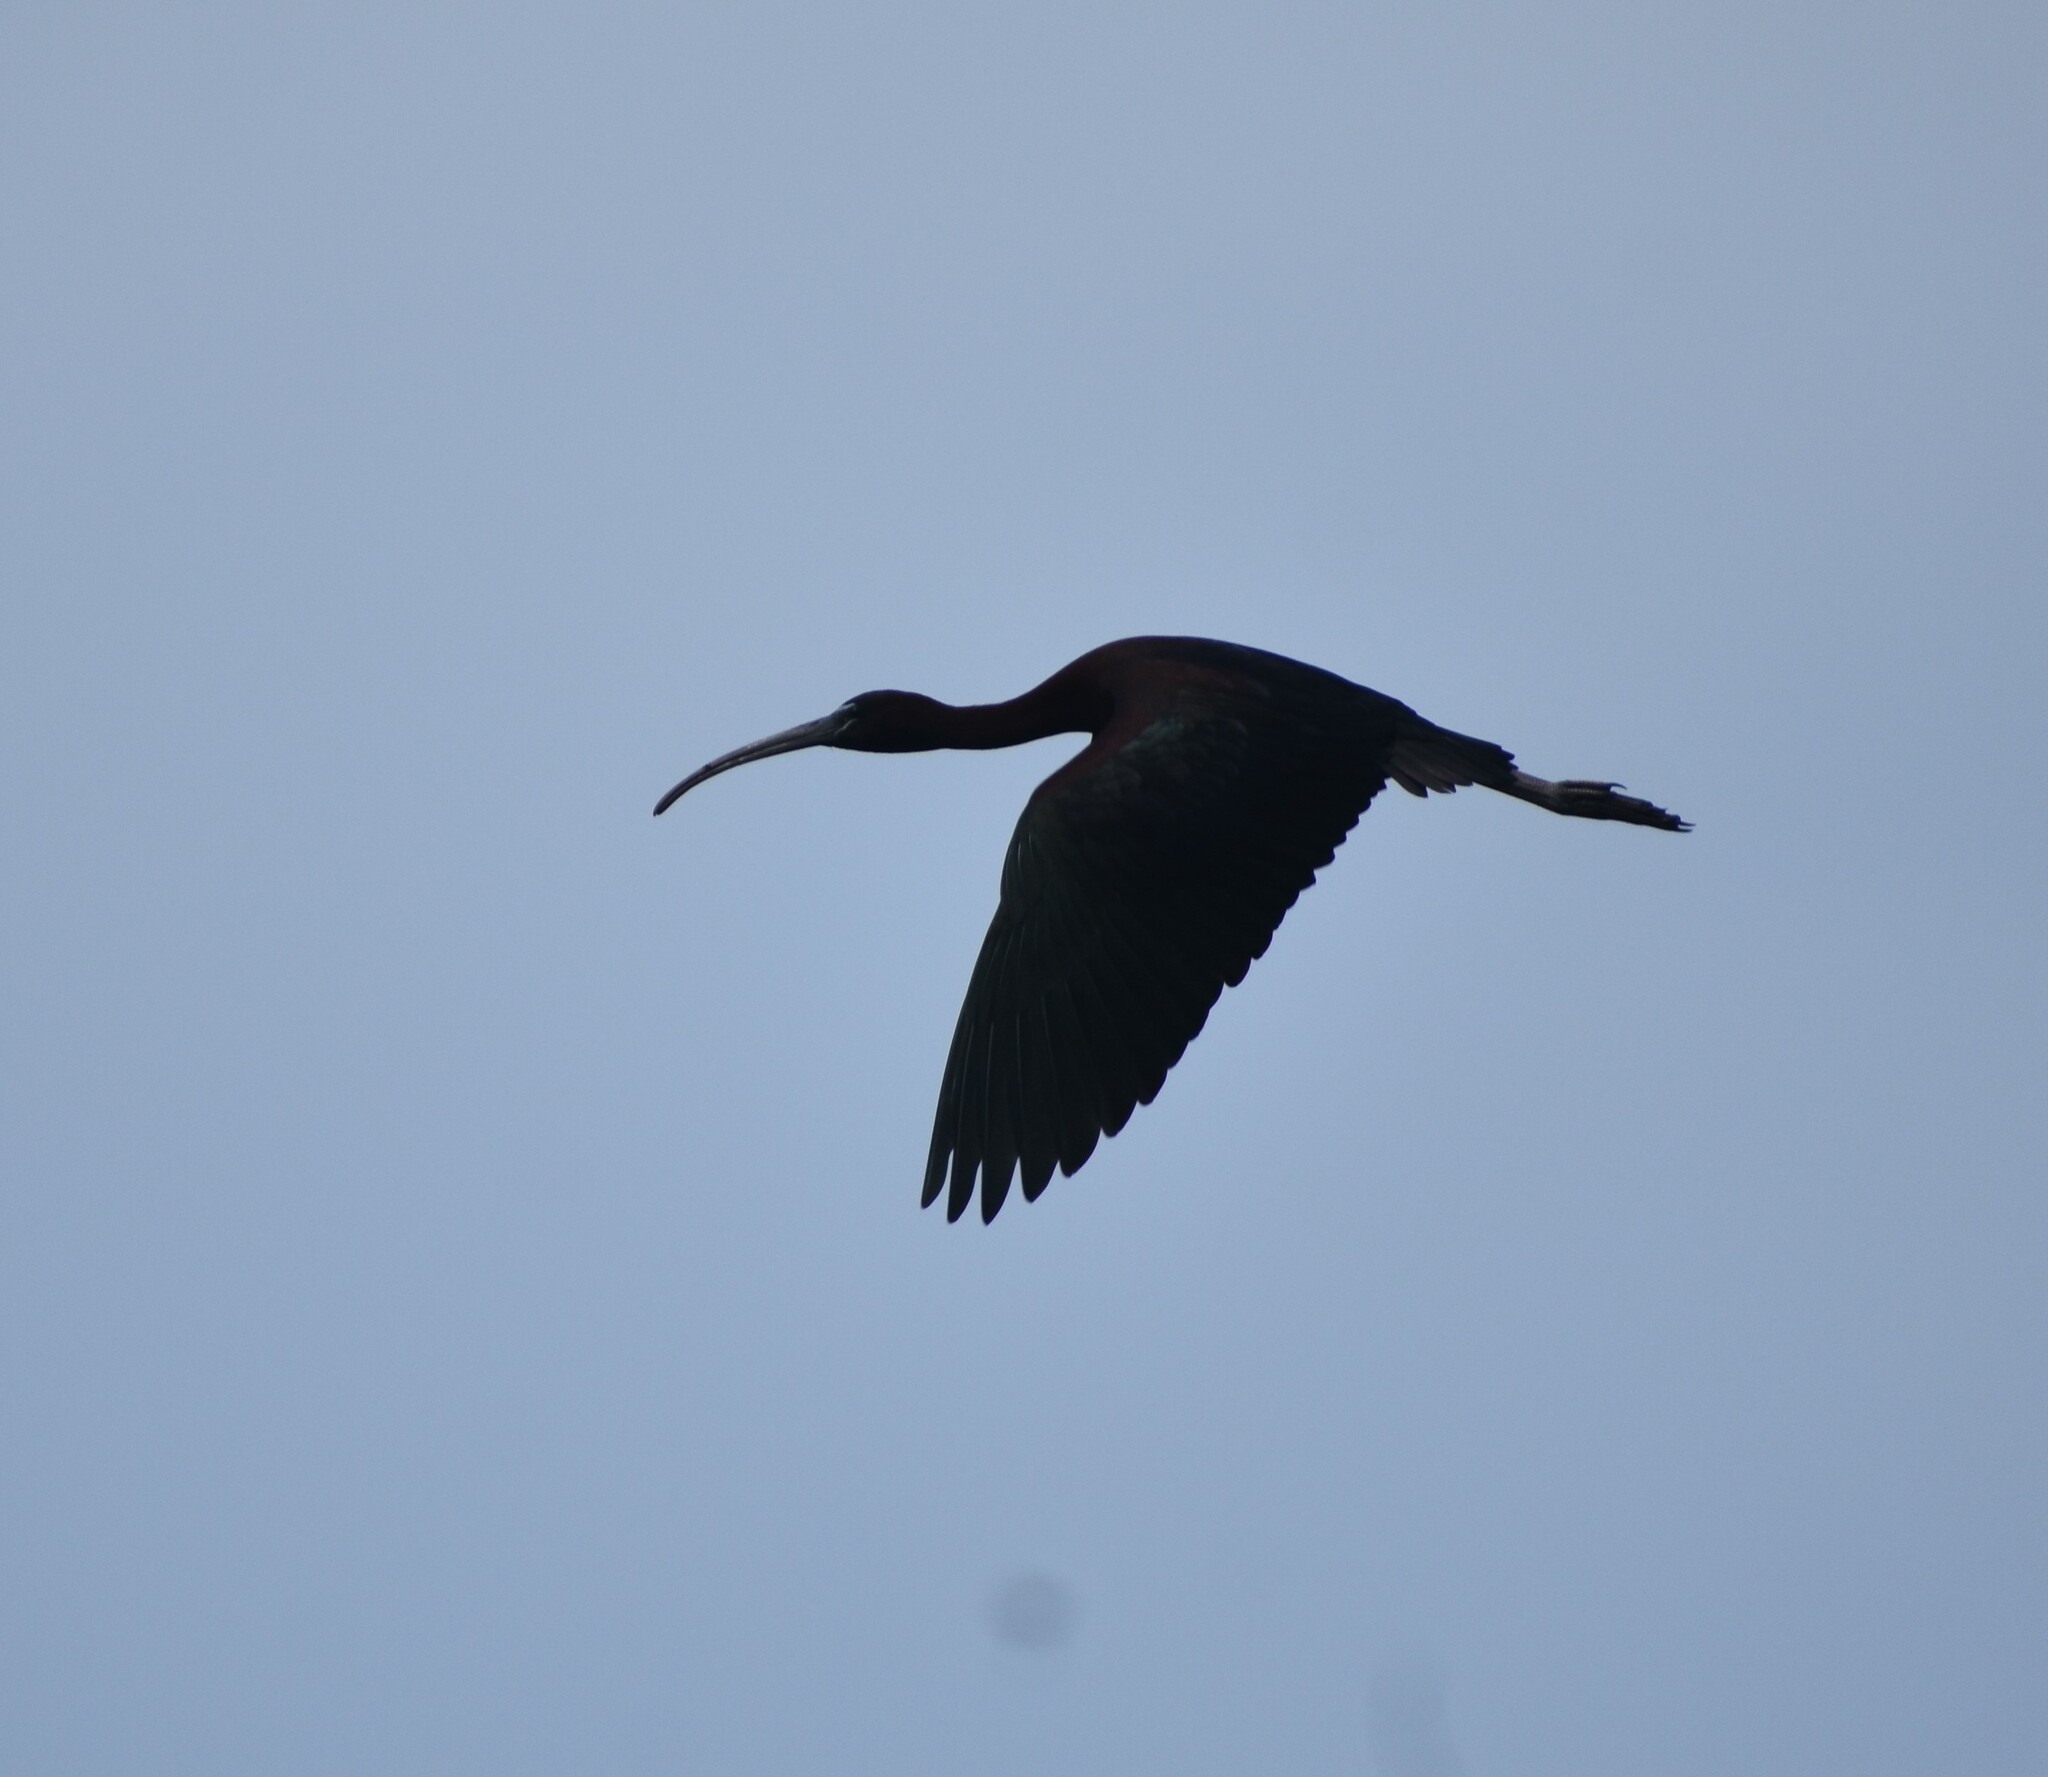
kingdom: Animalia
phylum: Chordata
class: Aves
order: Pelecaniformes
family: Threskiornithidae
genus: Plegadis
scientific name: Plegadis falcinellus
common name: Glossy ibis
